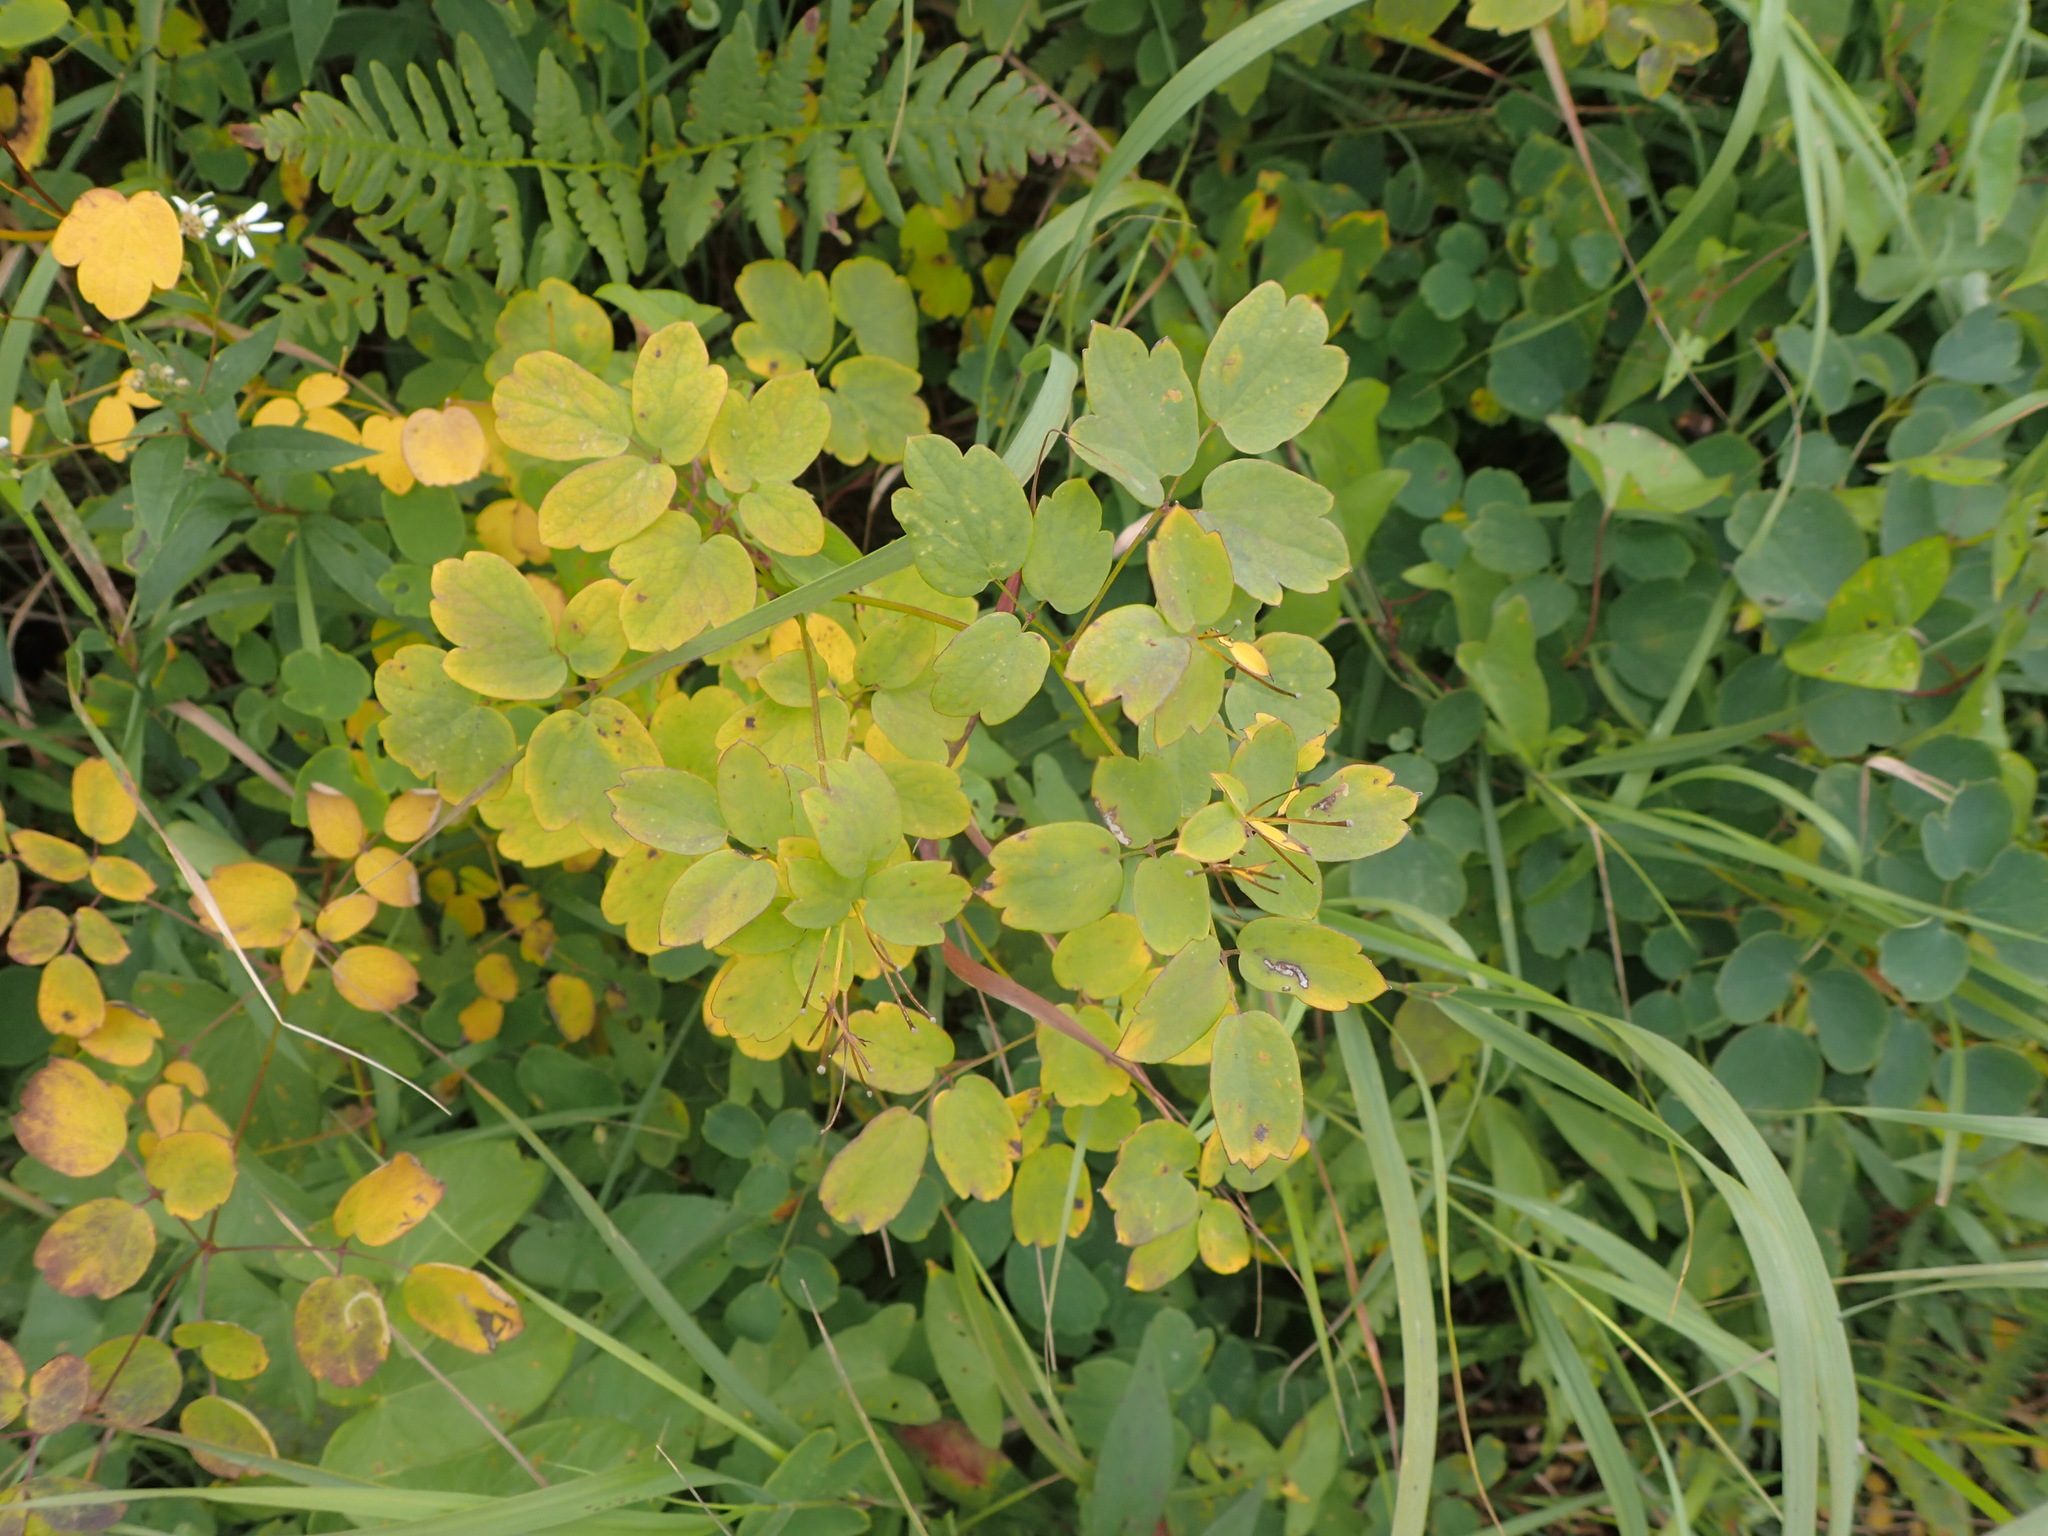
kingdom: Plantae
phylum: Tracheophyta
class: Magnoliopsida
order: Ranunculales
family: Ranunculaceae
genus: Thalictrum
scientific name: Thalictrum pubescens
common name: King-of-the-meadow
